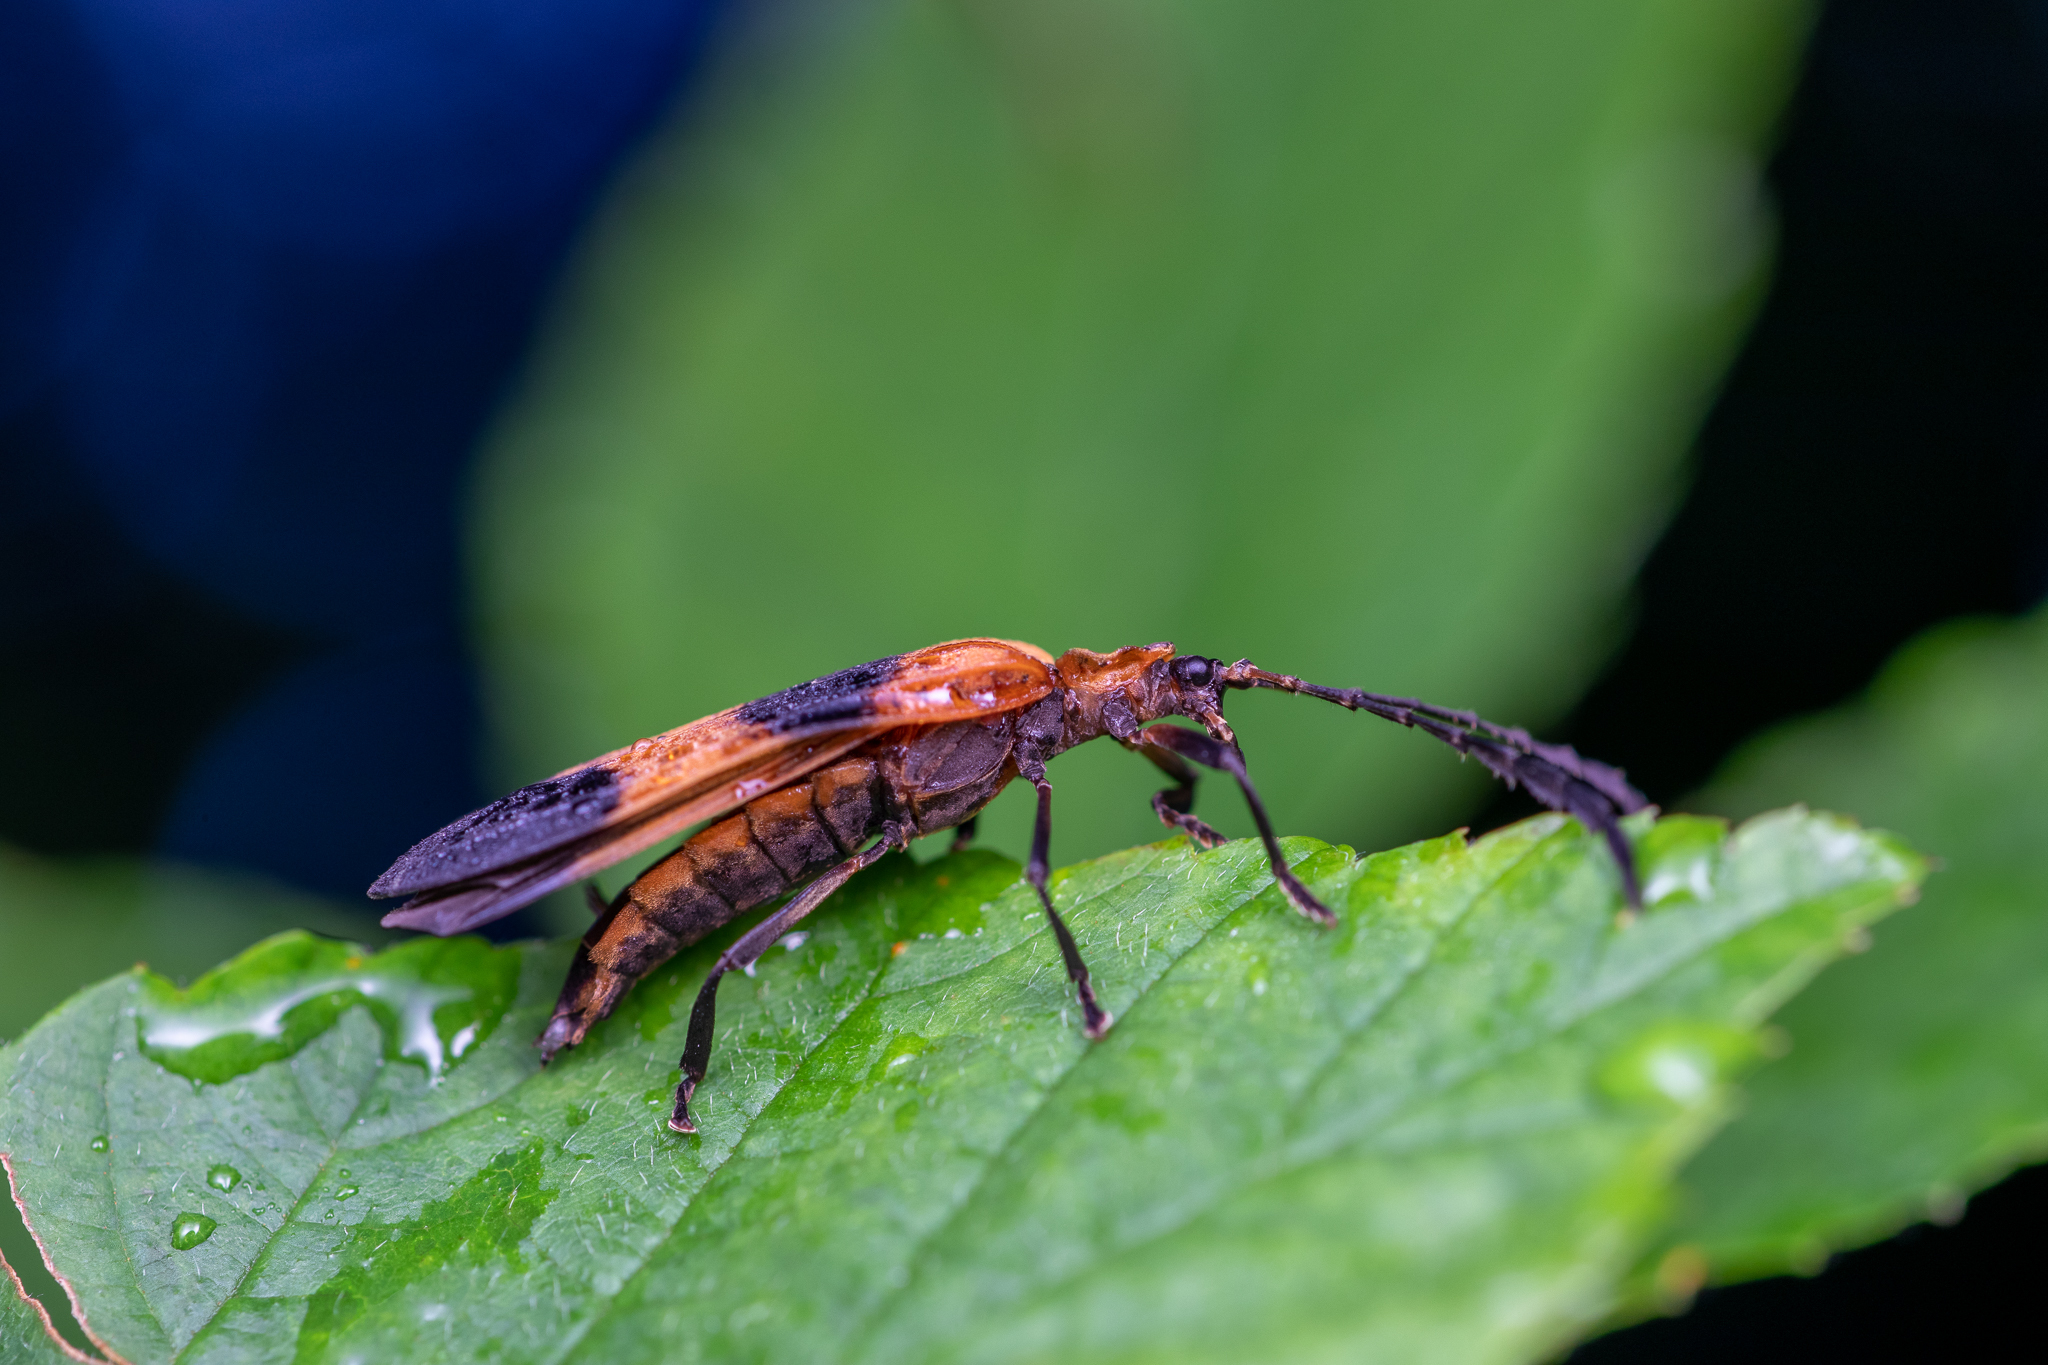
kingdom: Animalia
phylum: Arthropoda
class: Insecta
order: Coleoptera
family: Lycidae
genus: Calopteron
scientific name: Calopteron reticulatum
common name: Banded net-winged beetle
